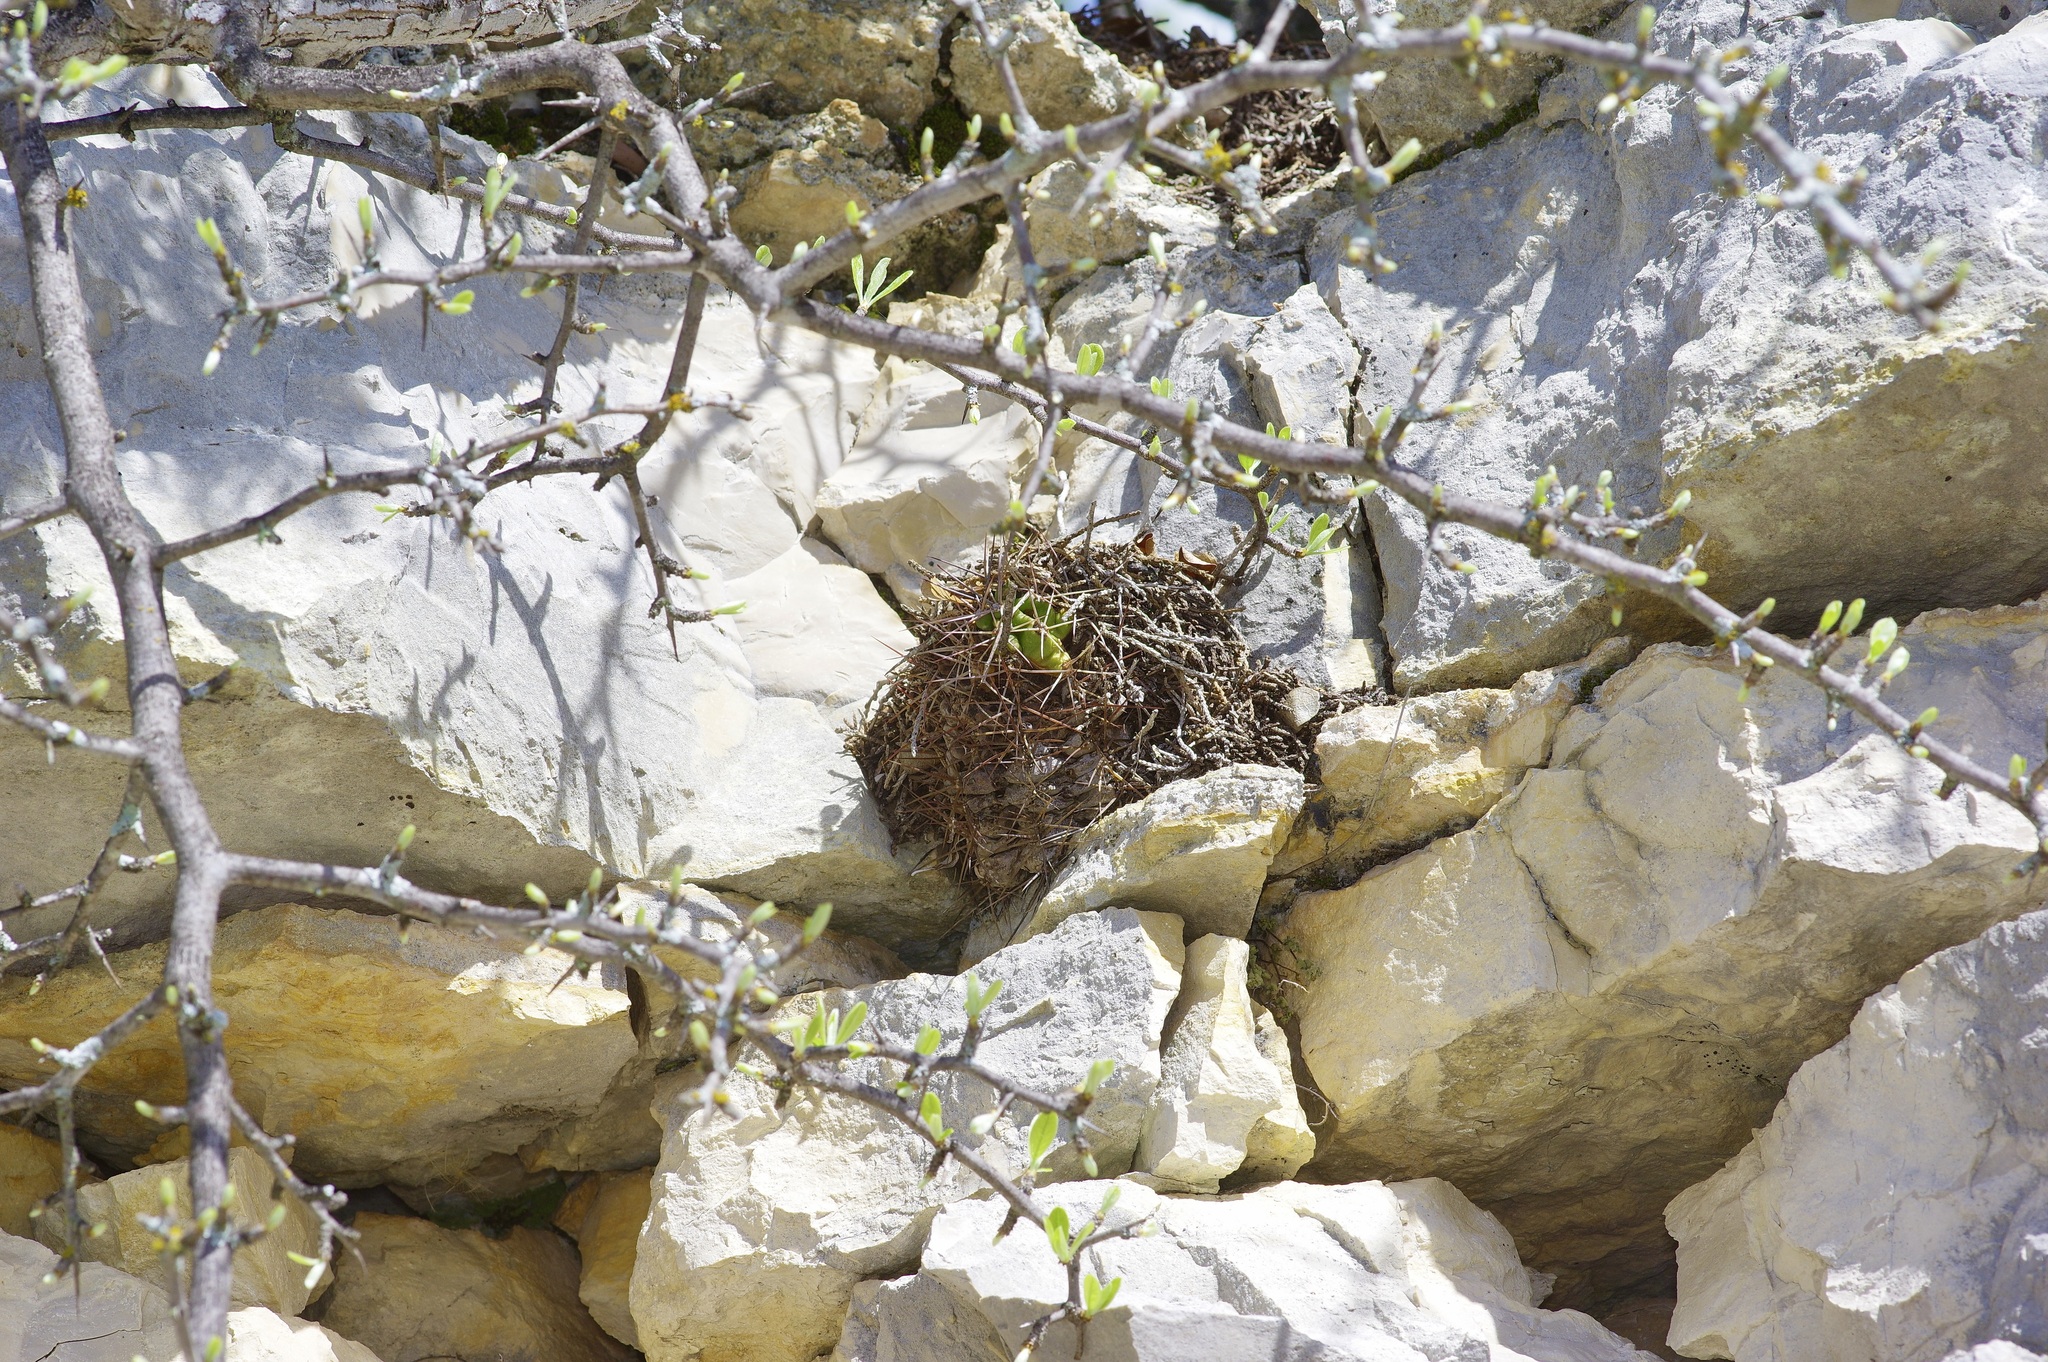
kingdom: Plantae
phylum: Tracheophyta
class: Magnoliopsida
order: Caryophyllales
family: Cactaceae
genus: Echinocereus
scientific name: Echinocereus coccineus
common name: Scarlet hedgehog cactus
